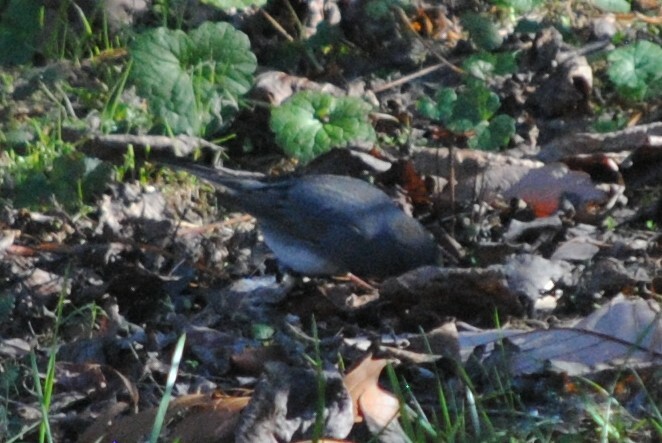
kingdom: Animalia
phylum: Chordata
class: Aves
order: Passeriformes
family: Passerellidae
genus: Junco
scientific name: Junco hyemalis
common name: Dark-eyed junco
